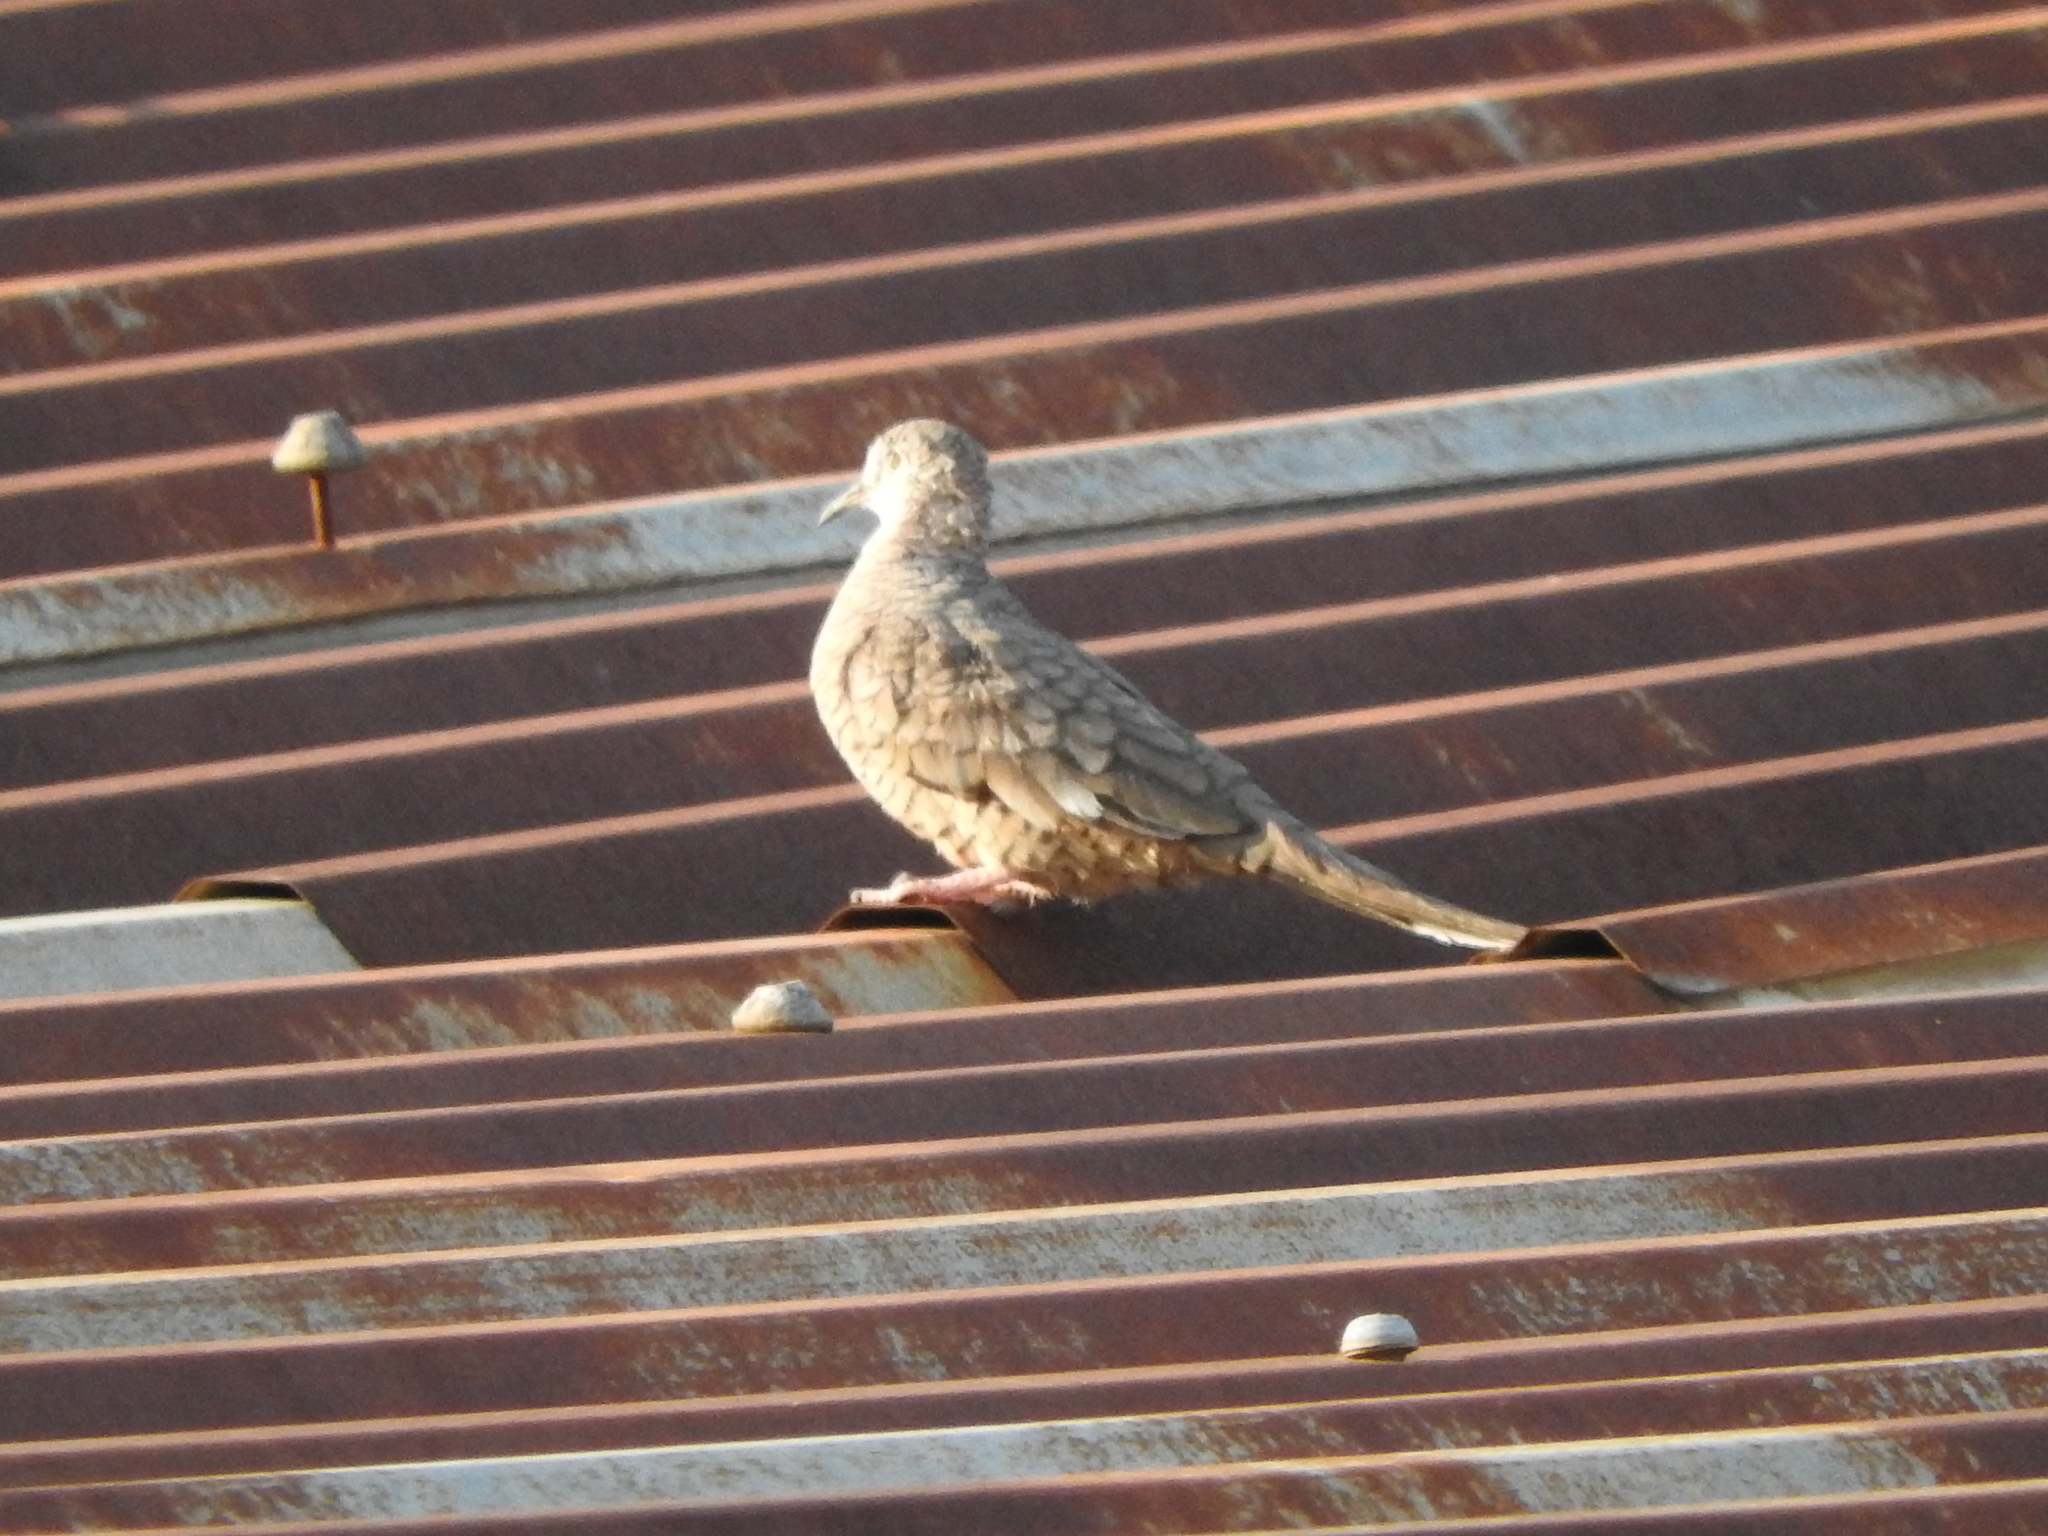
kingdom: Animalia
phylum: Chordata
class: Aves
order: Columbiformes
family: Columbidae
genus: Columbina
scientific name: Columbina inca
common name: Inca dove
